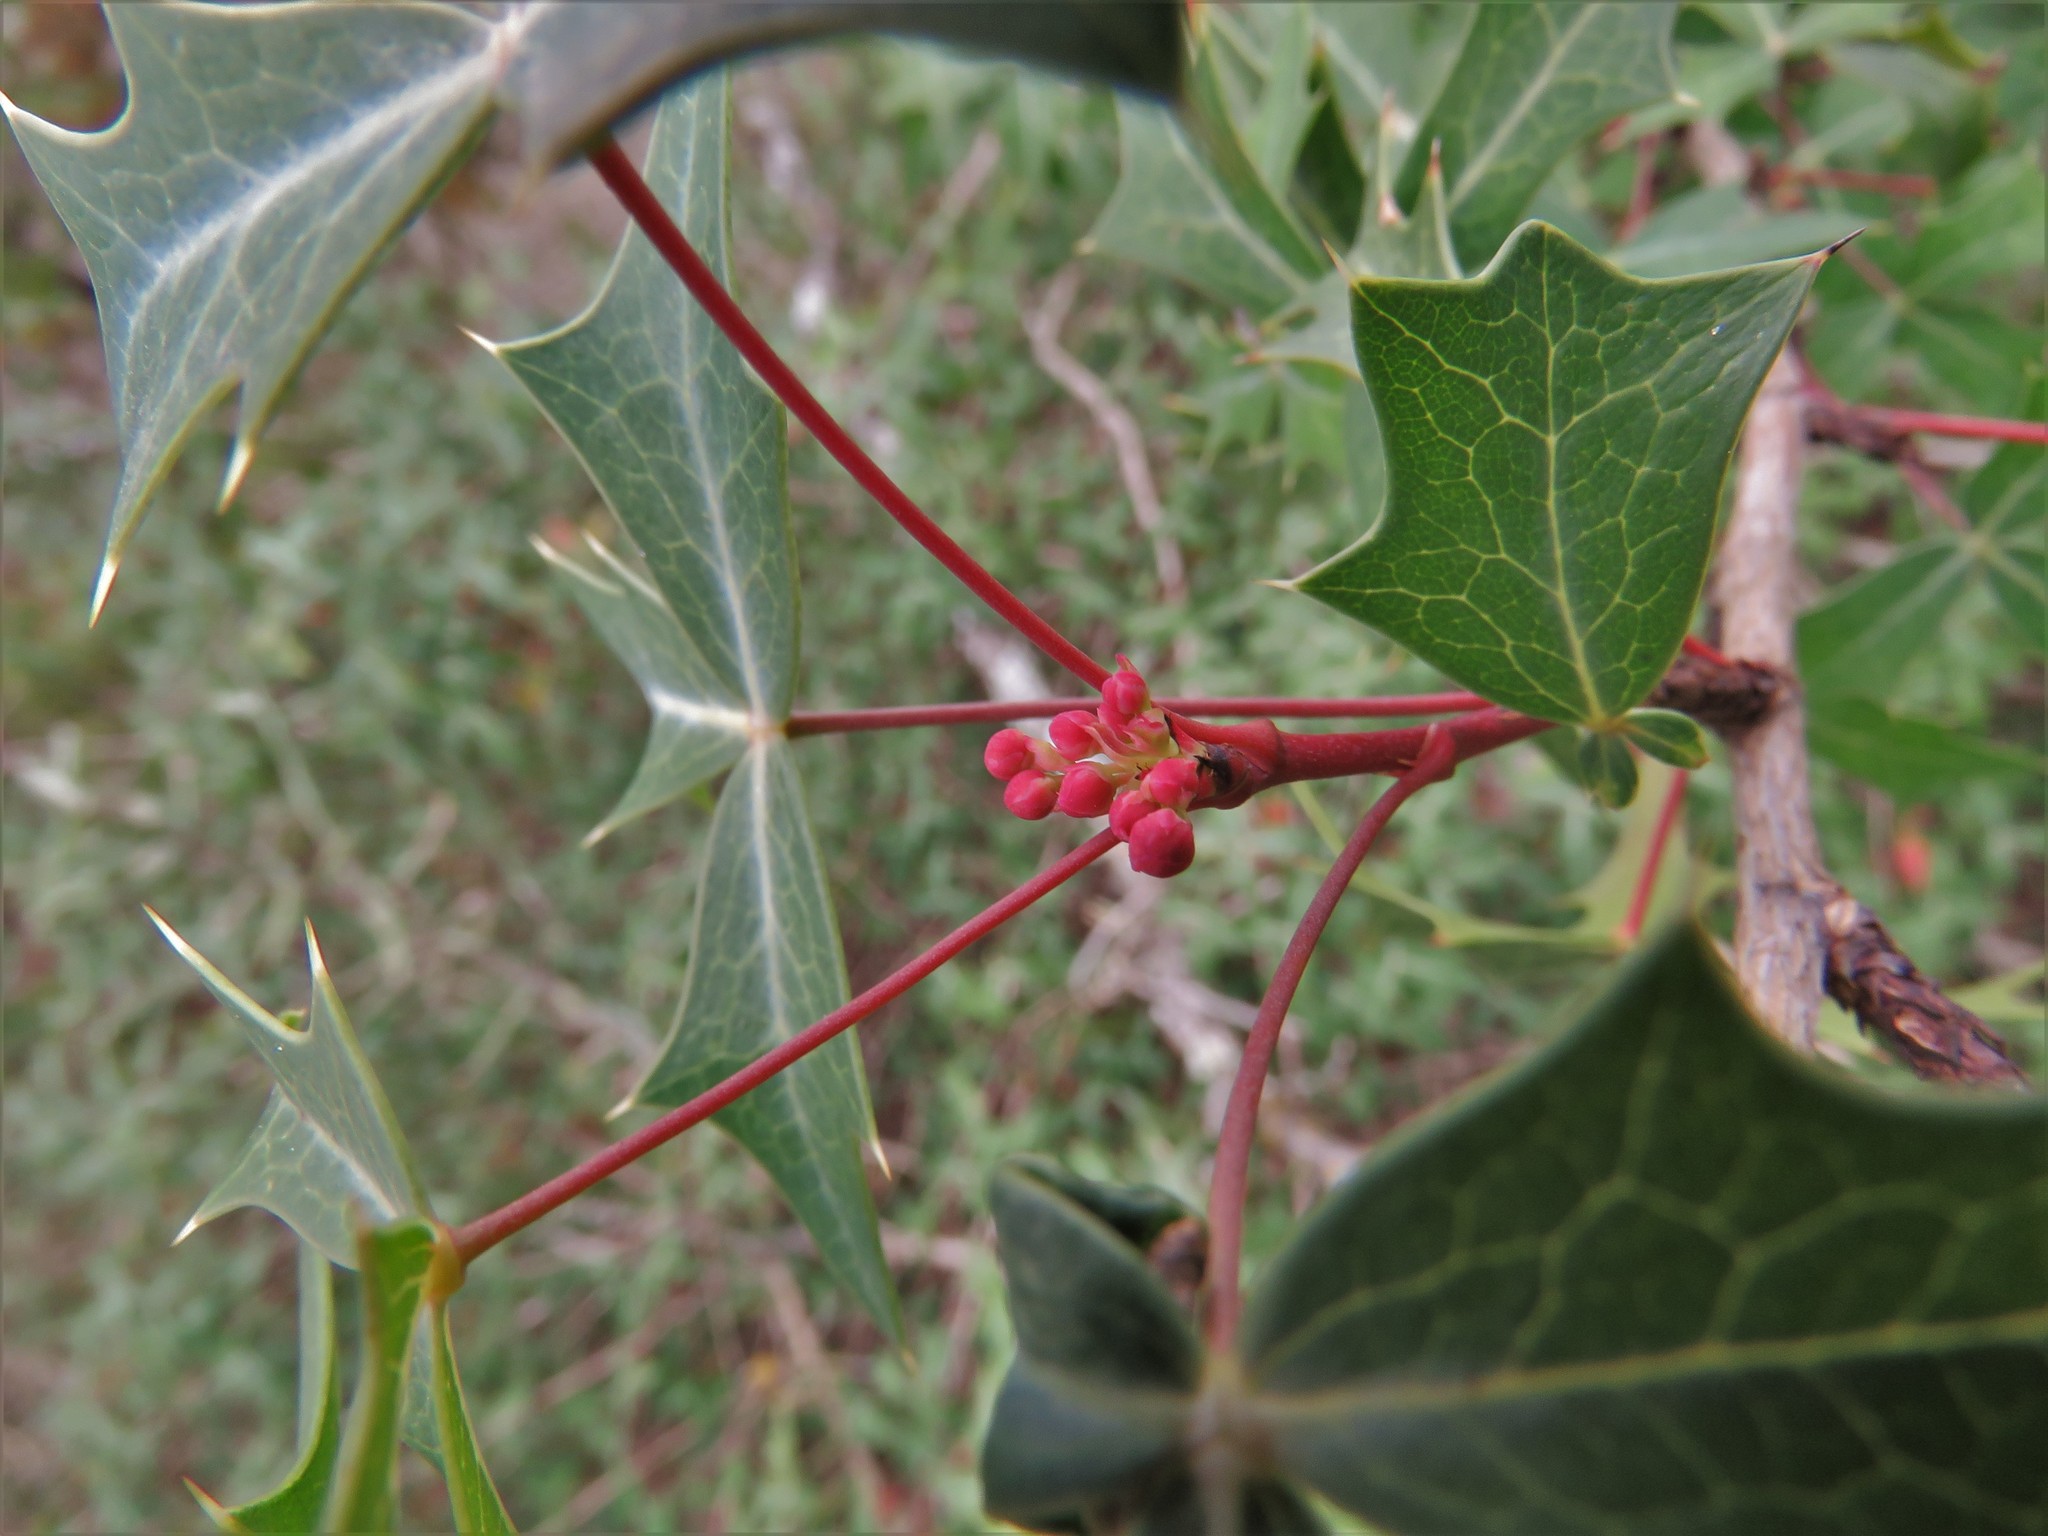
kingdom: Plantae
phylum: Tracheophyta
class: Magnoliopsida
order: Ranunculales
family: Berberidaceae
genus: Alloberberis
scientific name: Alloberberis trifoliolata
